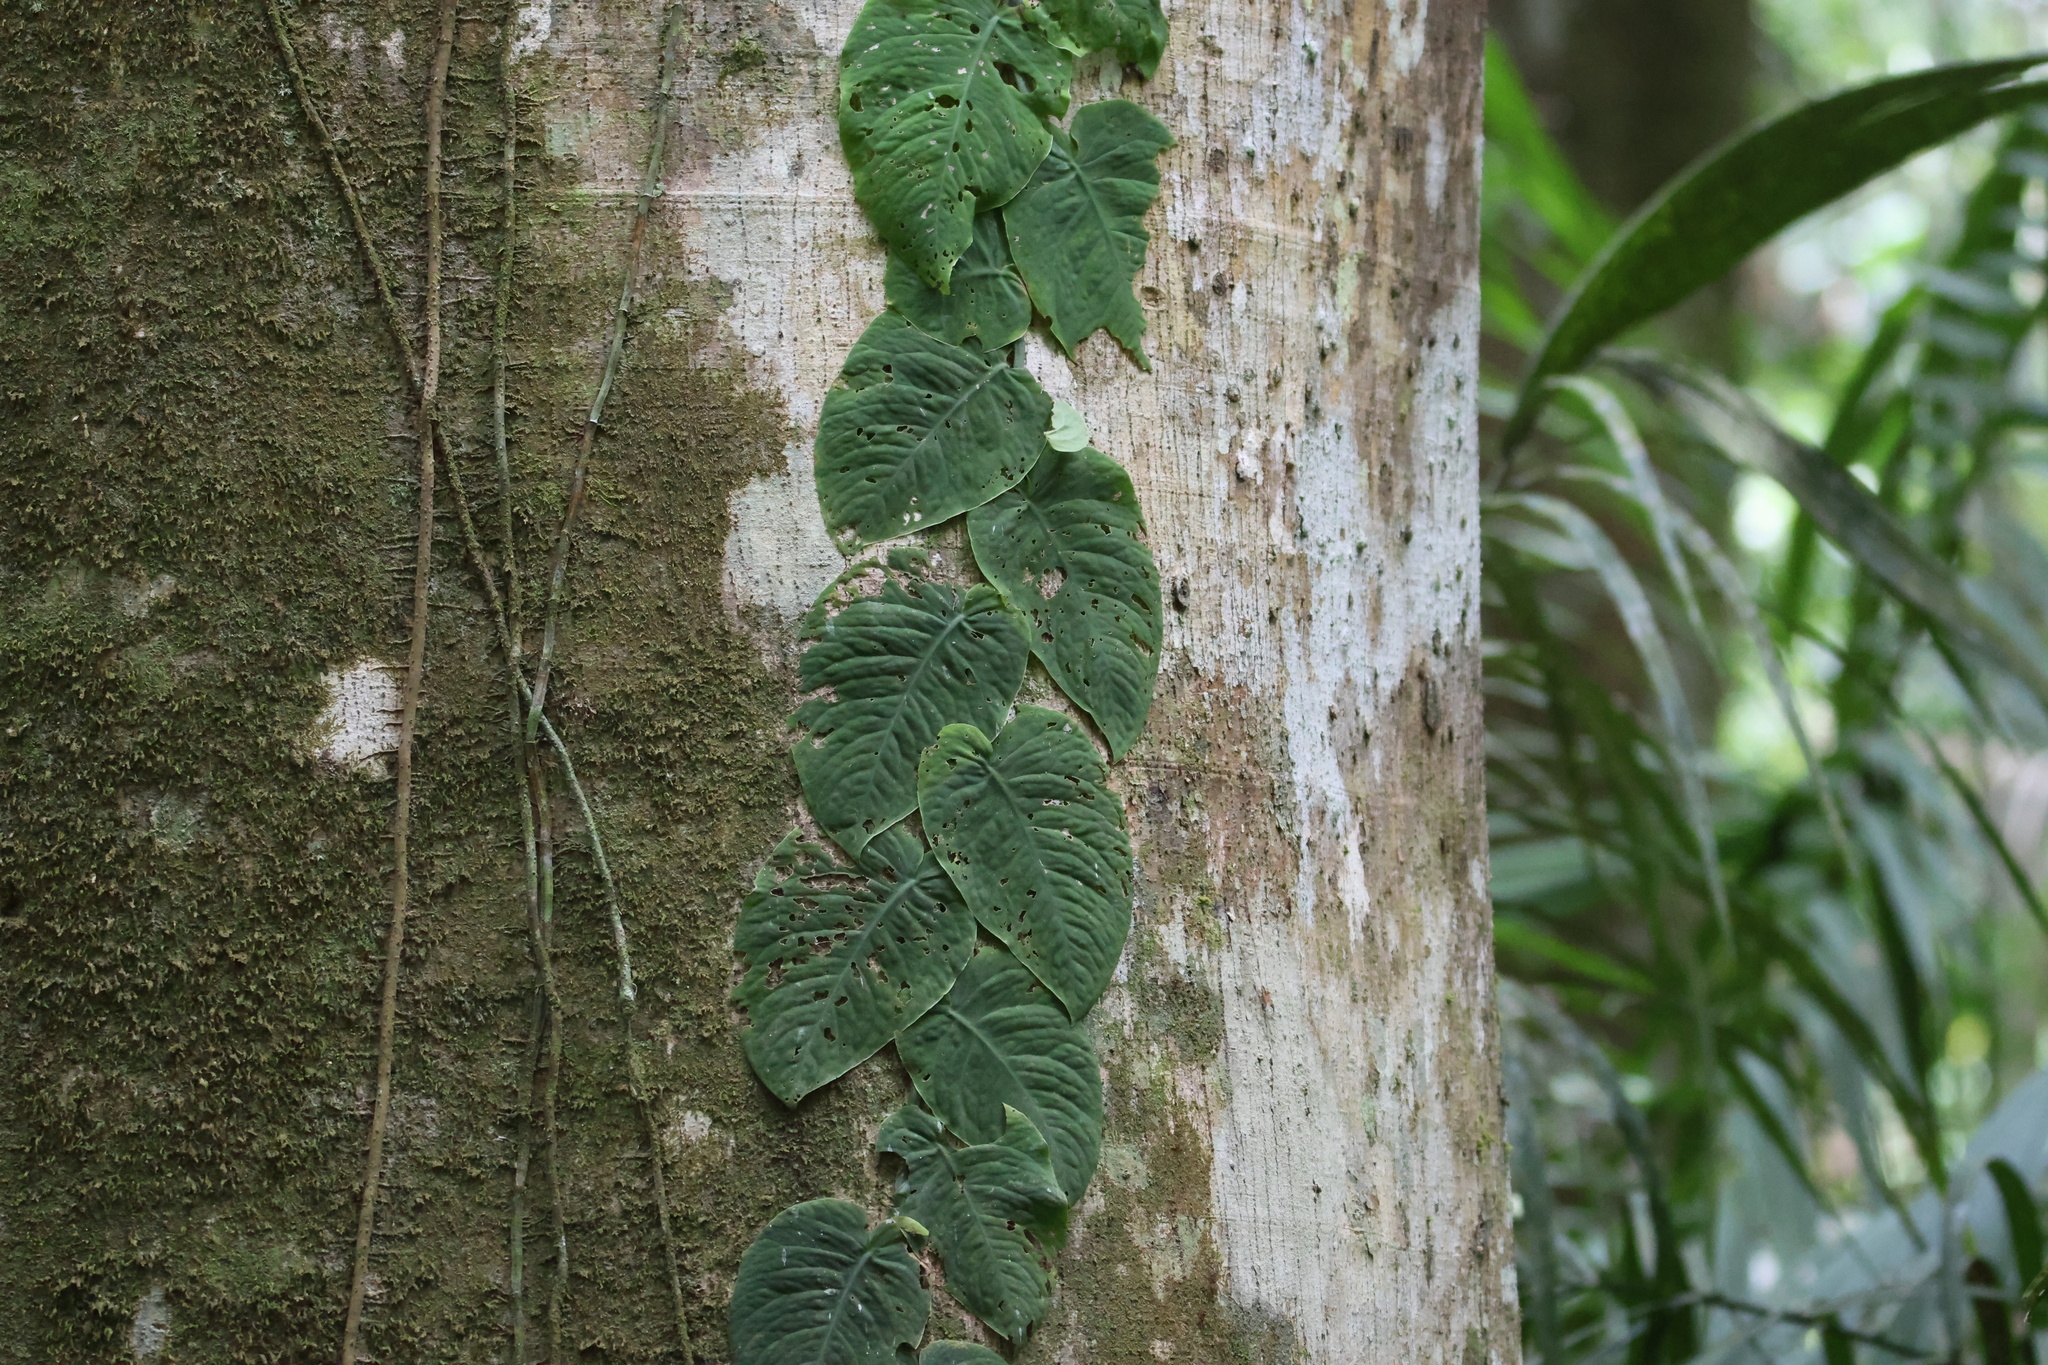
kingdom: Plantae
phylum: Tracheophyta
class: Liliopsida
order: Alismatales
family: Araceae
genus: Monstera
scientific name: Monstera dubia
